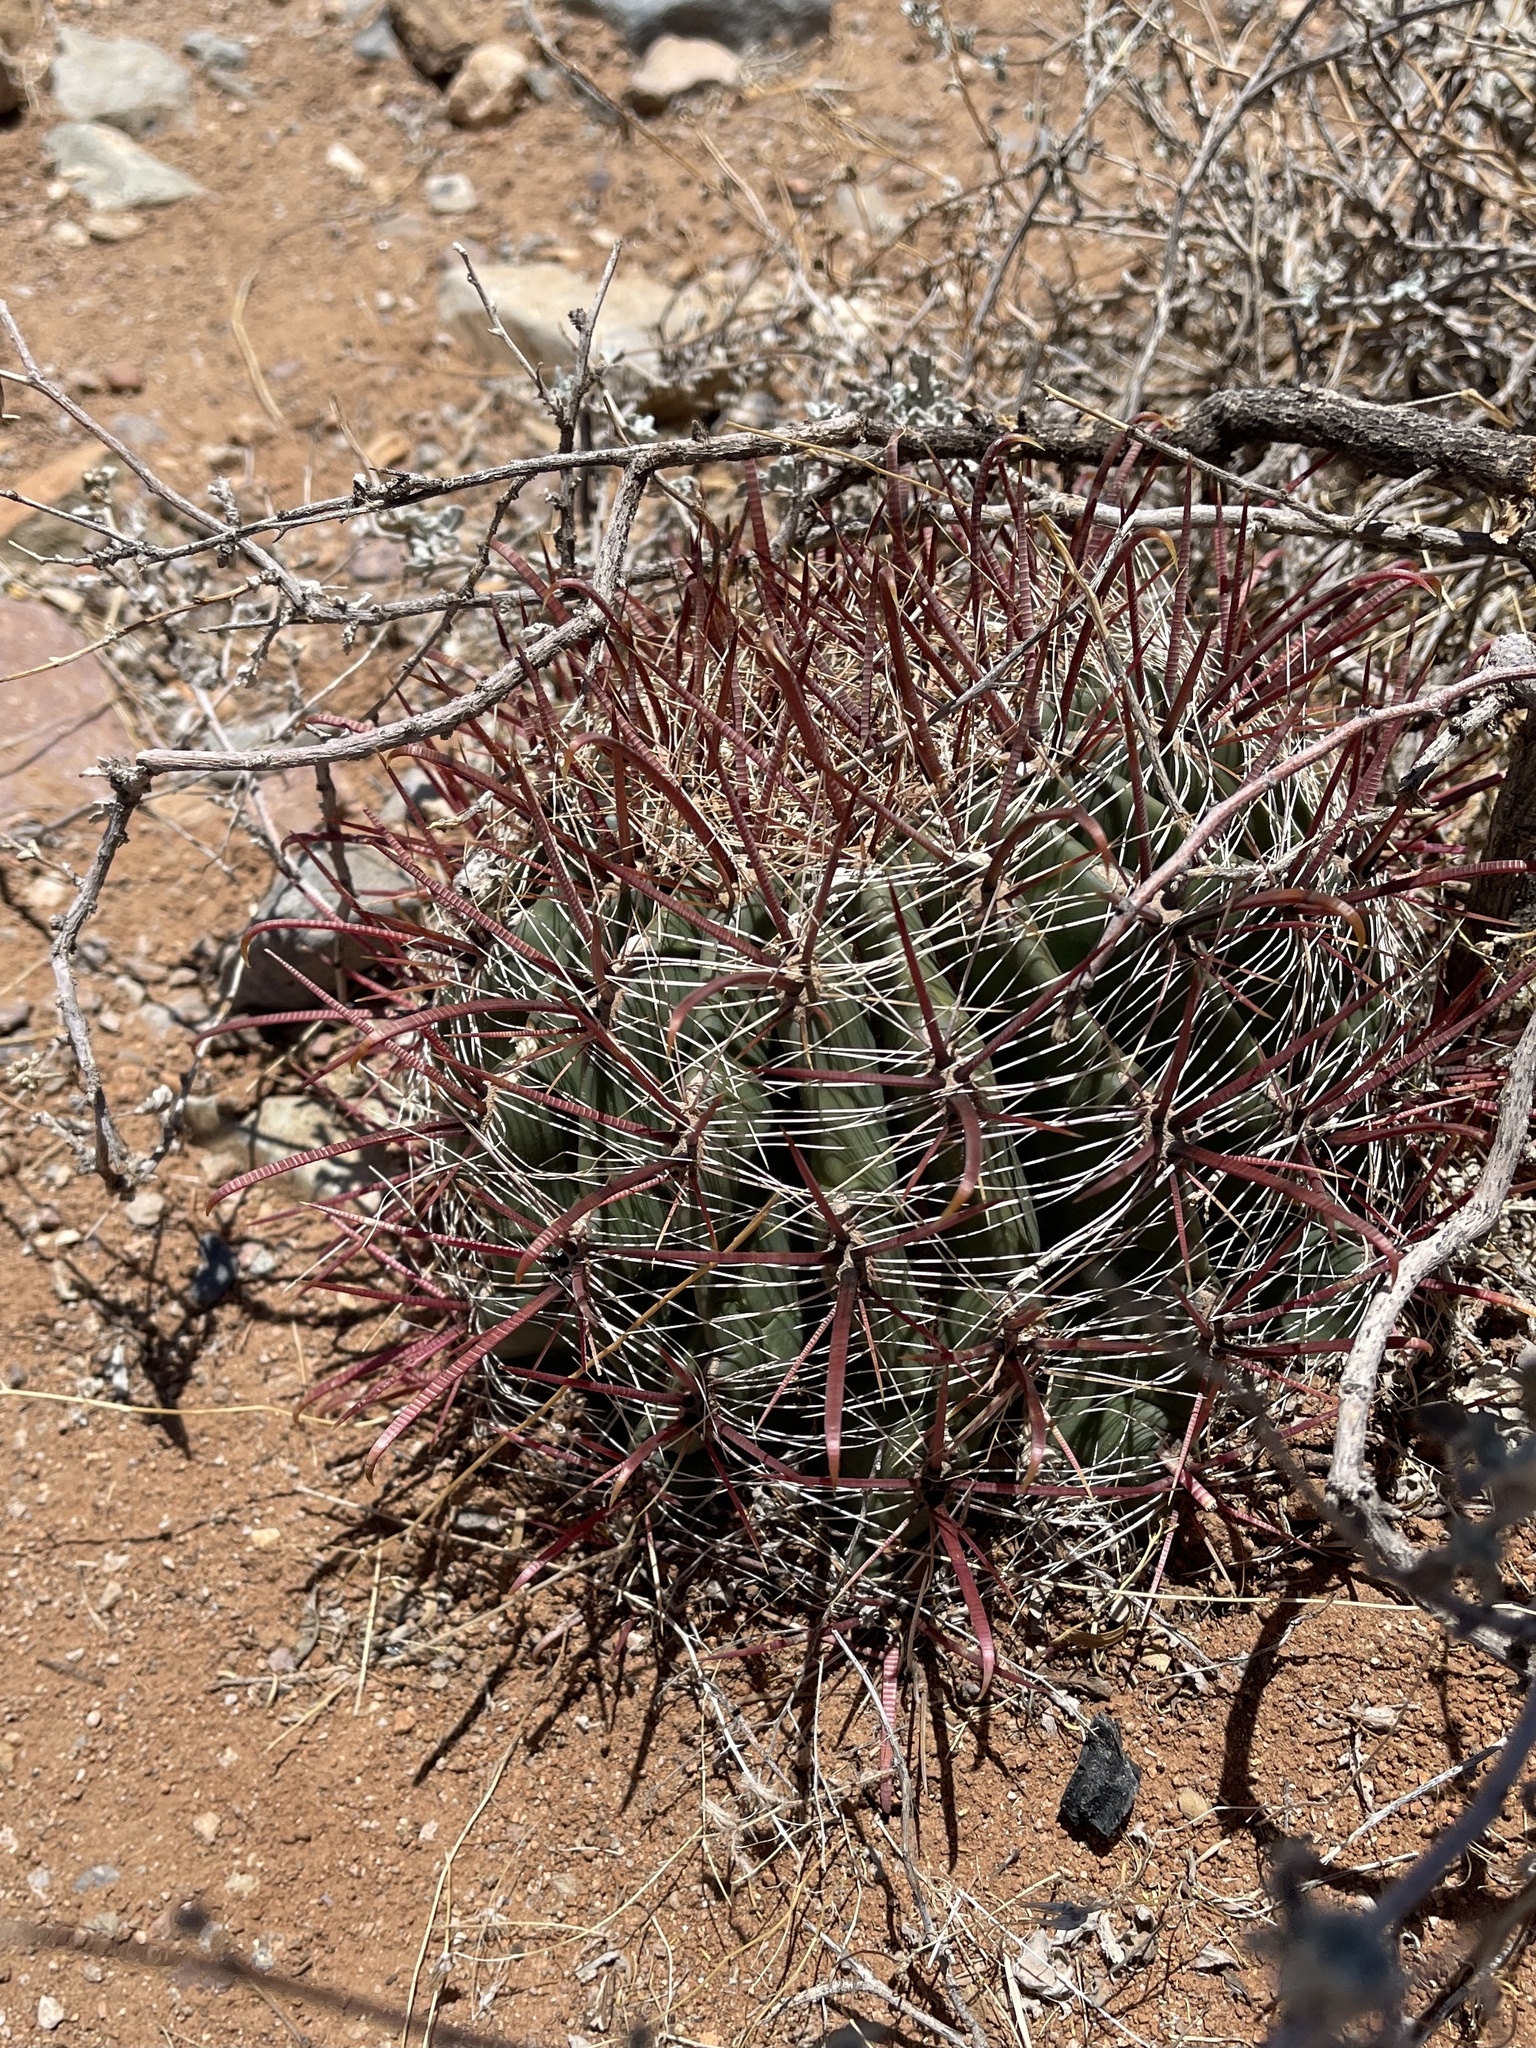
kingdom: Plantae
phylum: Tracheophyta
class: Magnoliopsida
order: Caryophyllales
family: Cactaceae
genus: Ferocactus
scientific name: Ferocactus wislizeni
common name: Candy barrel cactus
